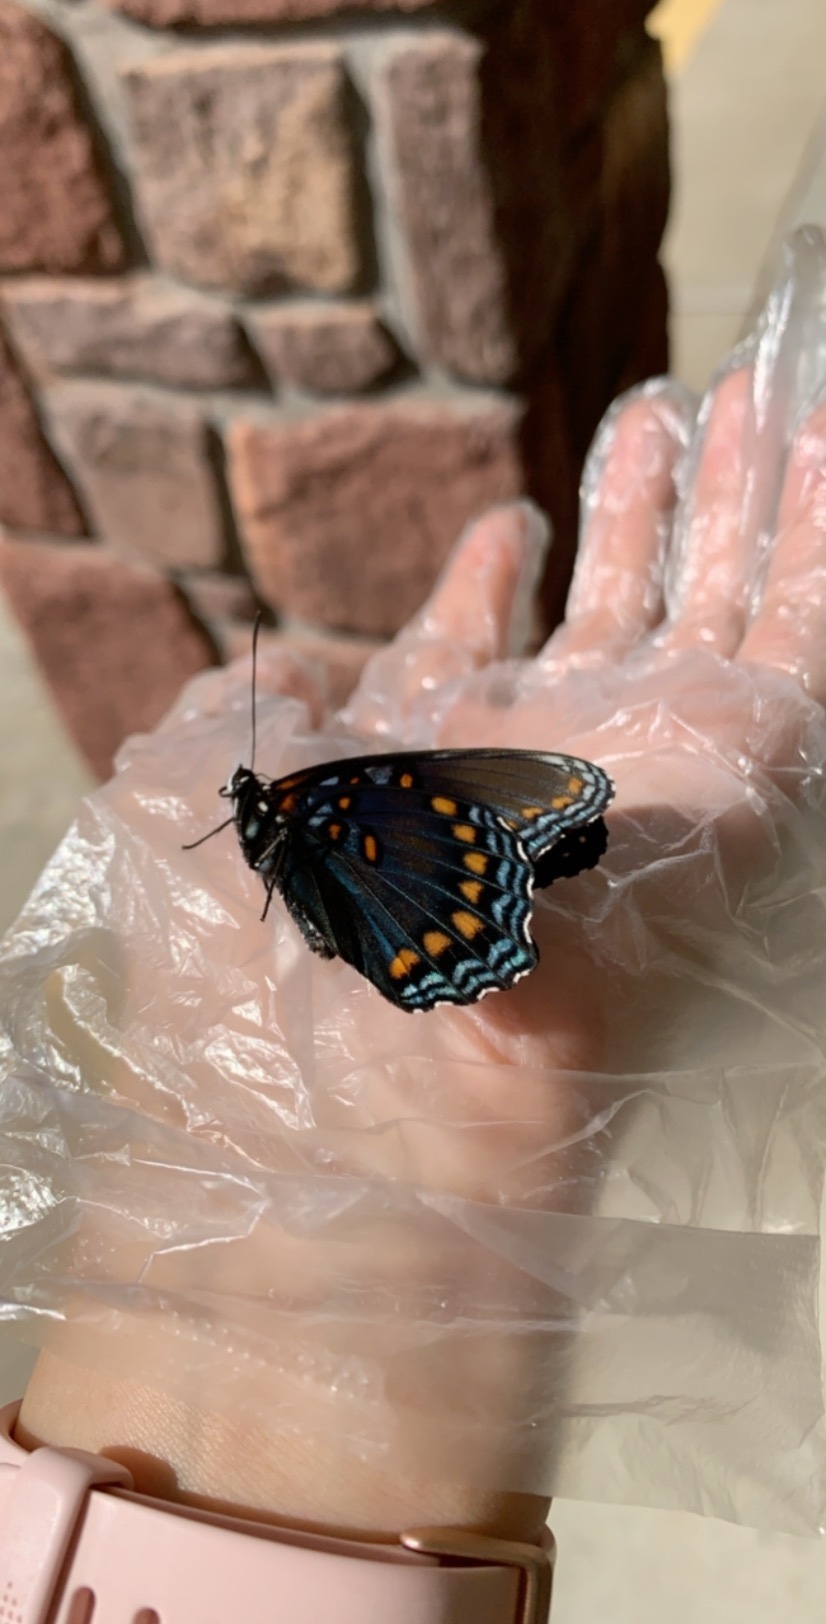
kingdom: Animalia
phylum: Arthropoda
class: Insecta
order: Lepidoptera
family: Nymphalidae
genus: Limenitis
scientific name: Limenitis astyanax
